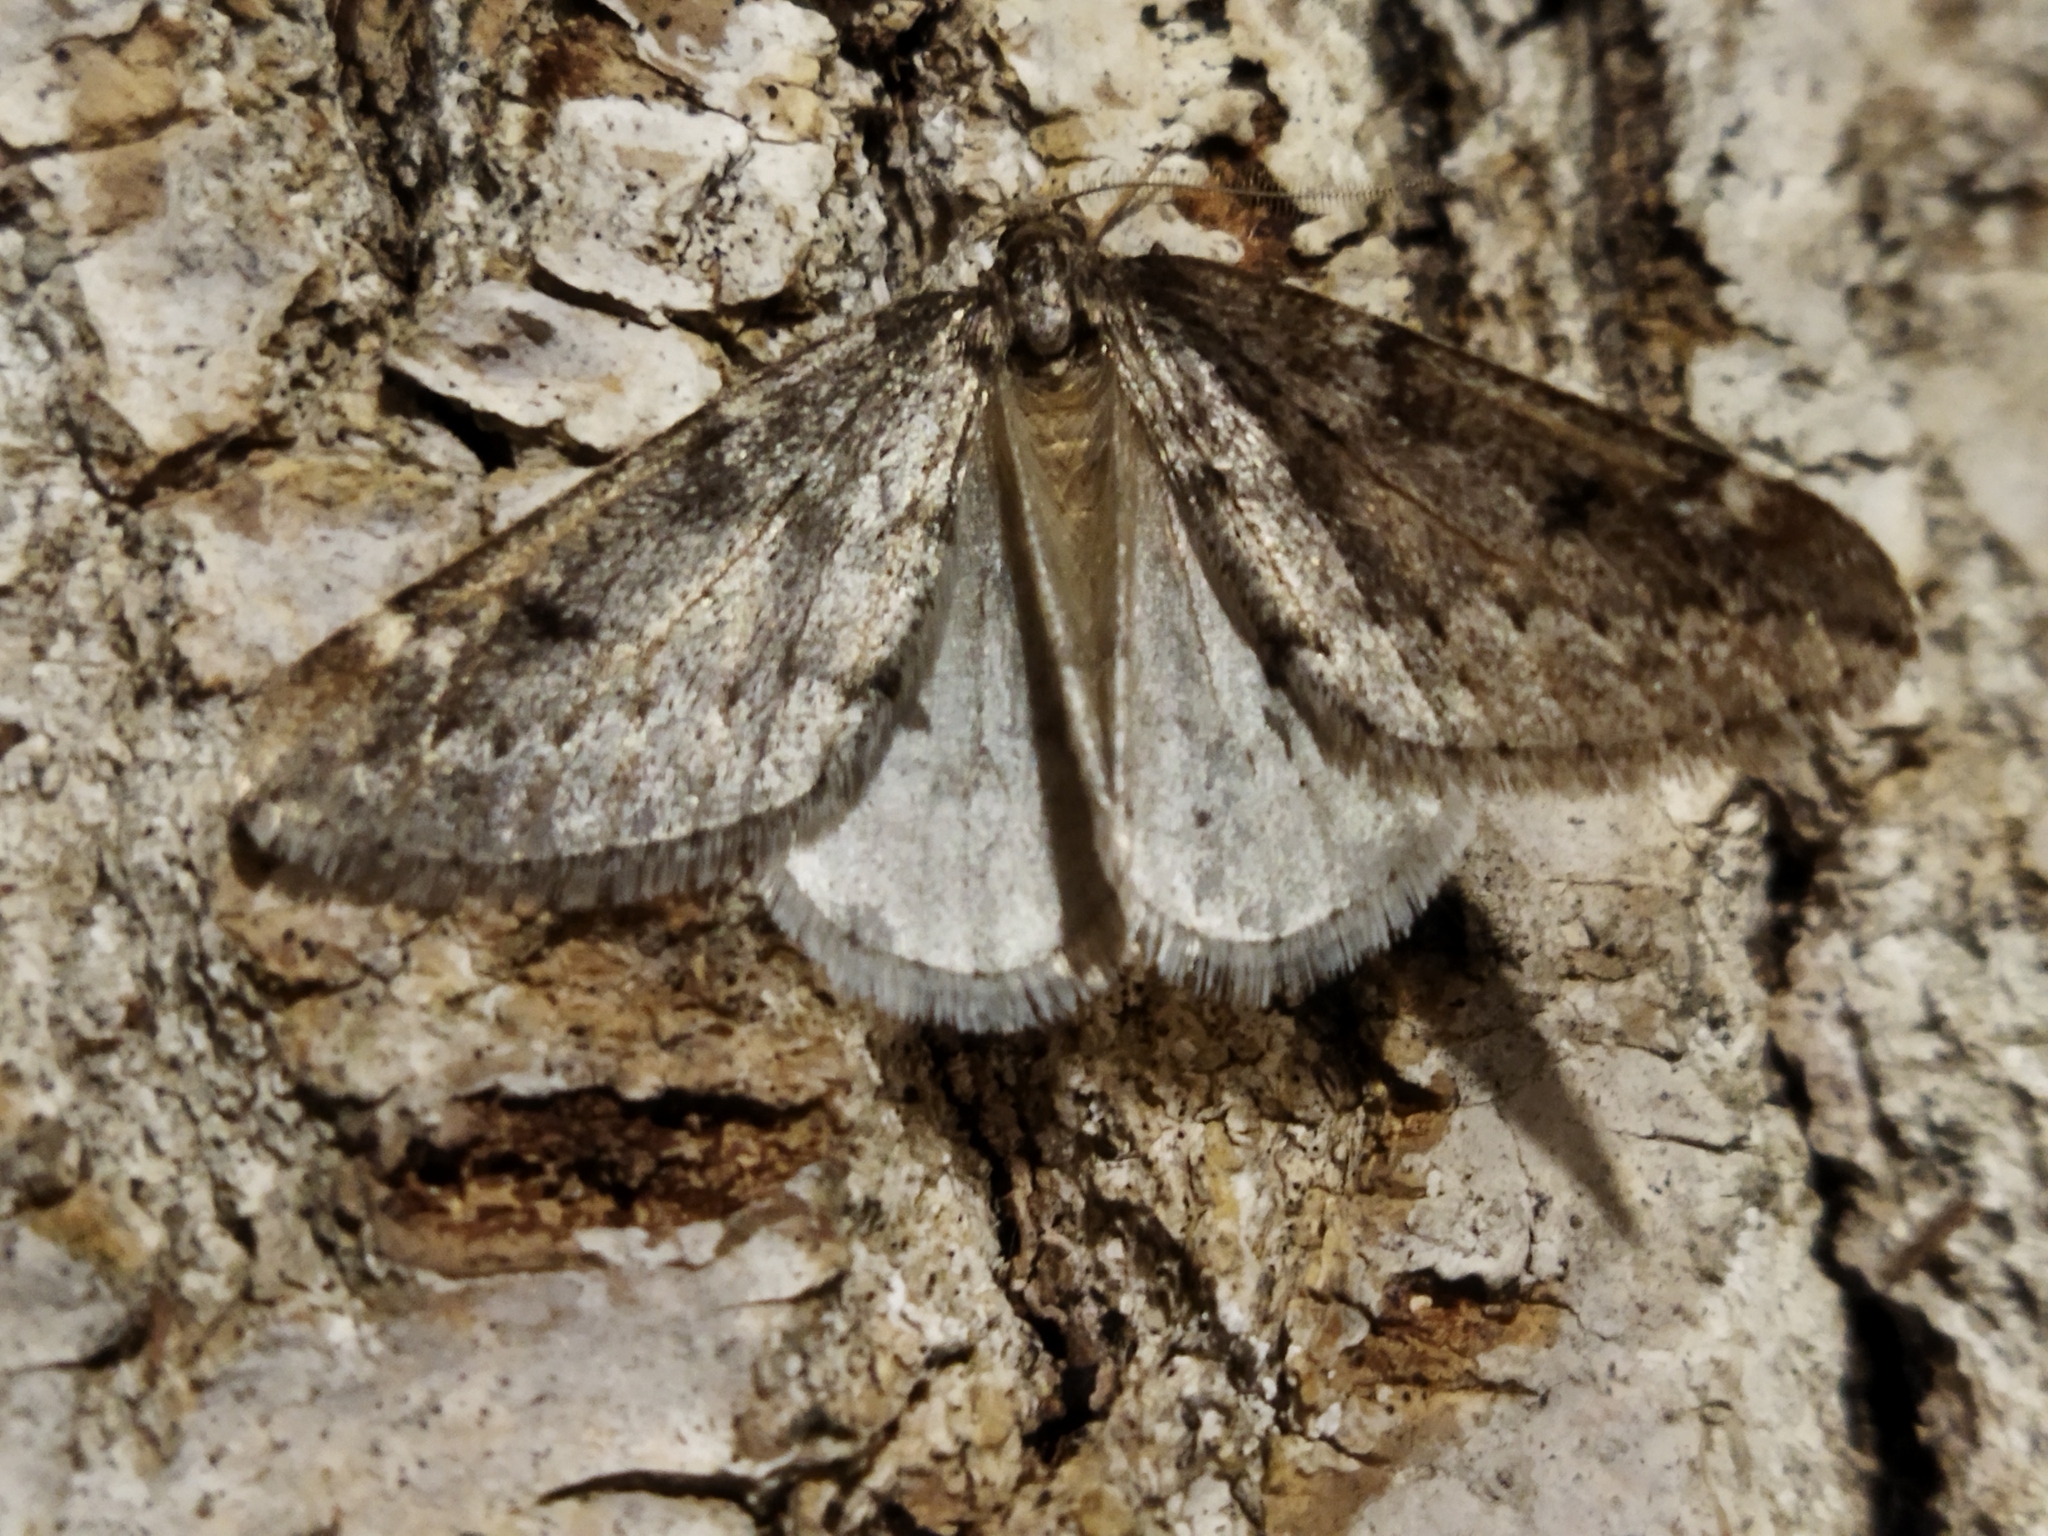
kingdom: Animalia
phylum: Arthropoda
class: Insecta
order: Lepidoptera
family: Geometridae
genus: Alsophila
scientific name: Alsophila aescularia
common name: March moth
